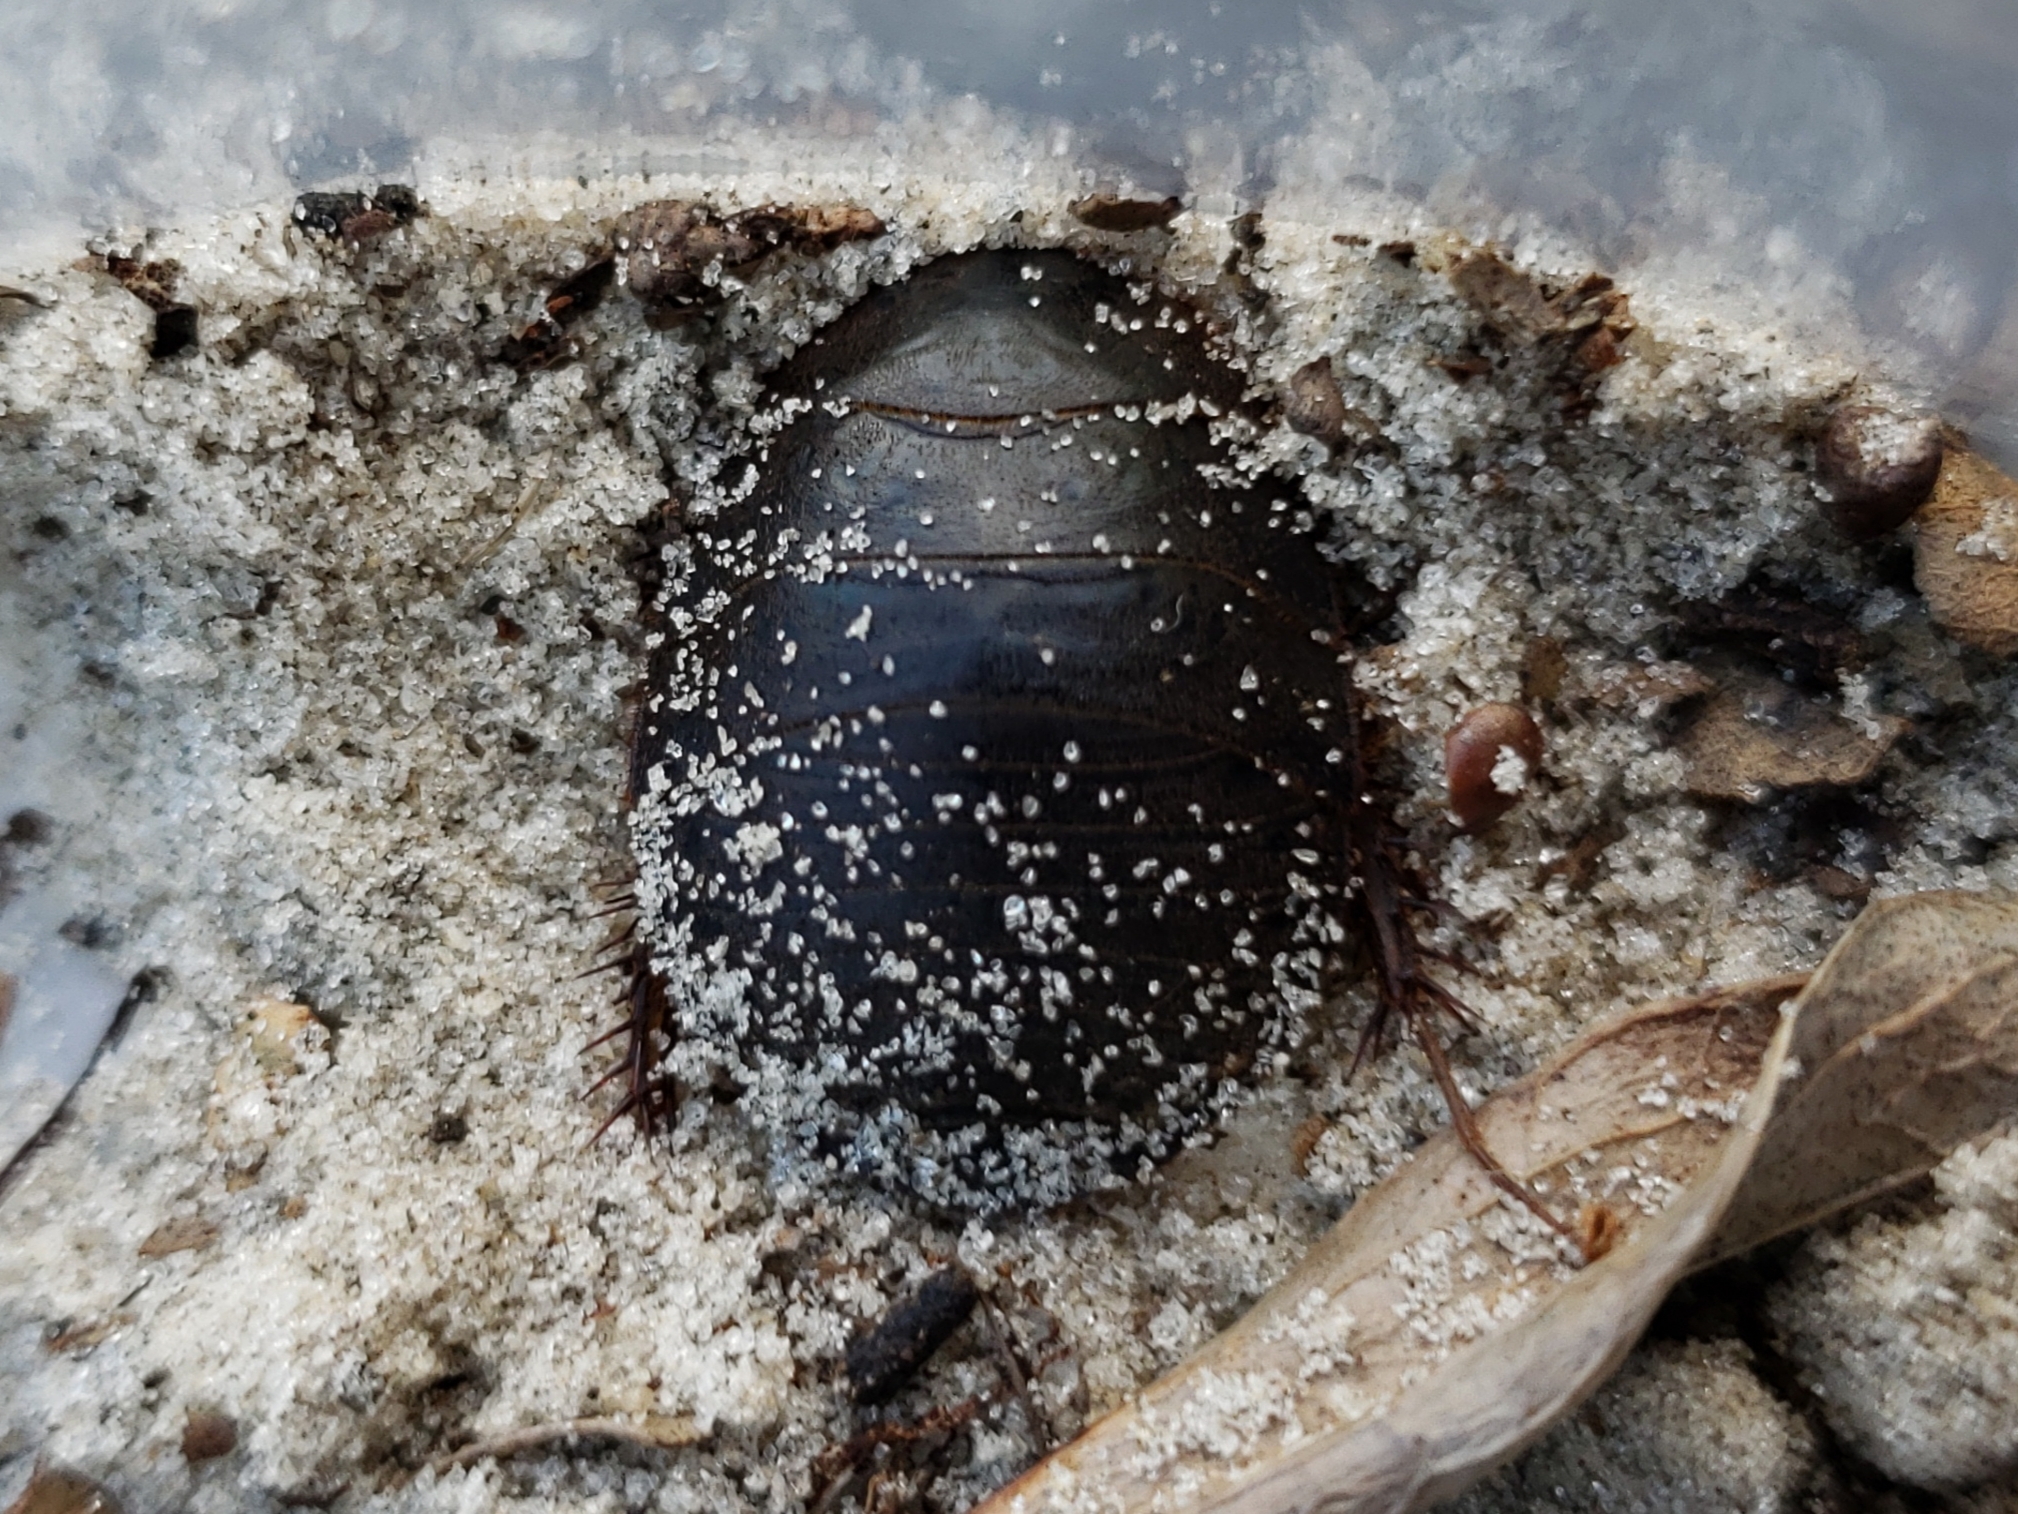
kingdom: Animalia
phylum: Arthropoda
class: Insecta
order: Blattodea
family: Corydiidae
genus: Arenivaga
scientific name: Arenivaga floridensis
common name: Florida sand cockroach
